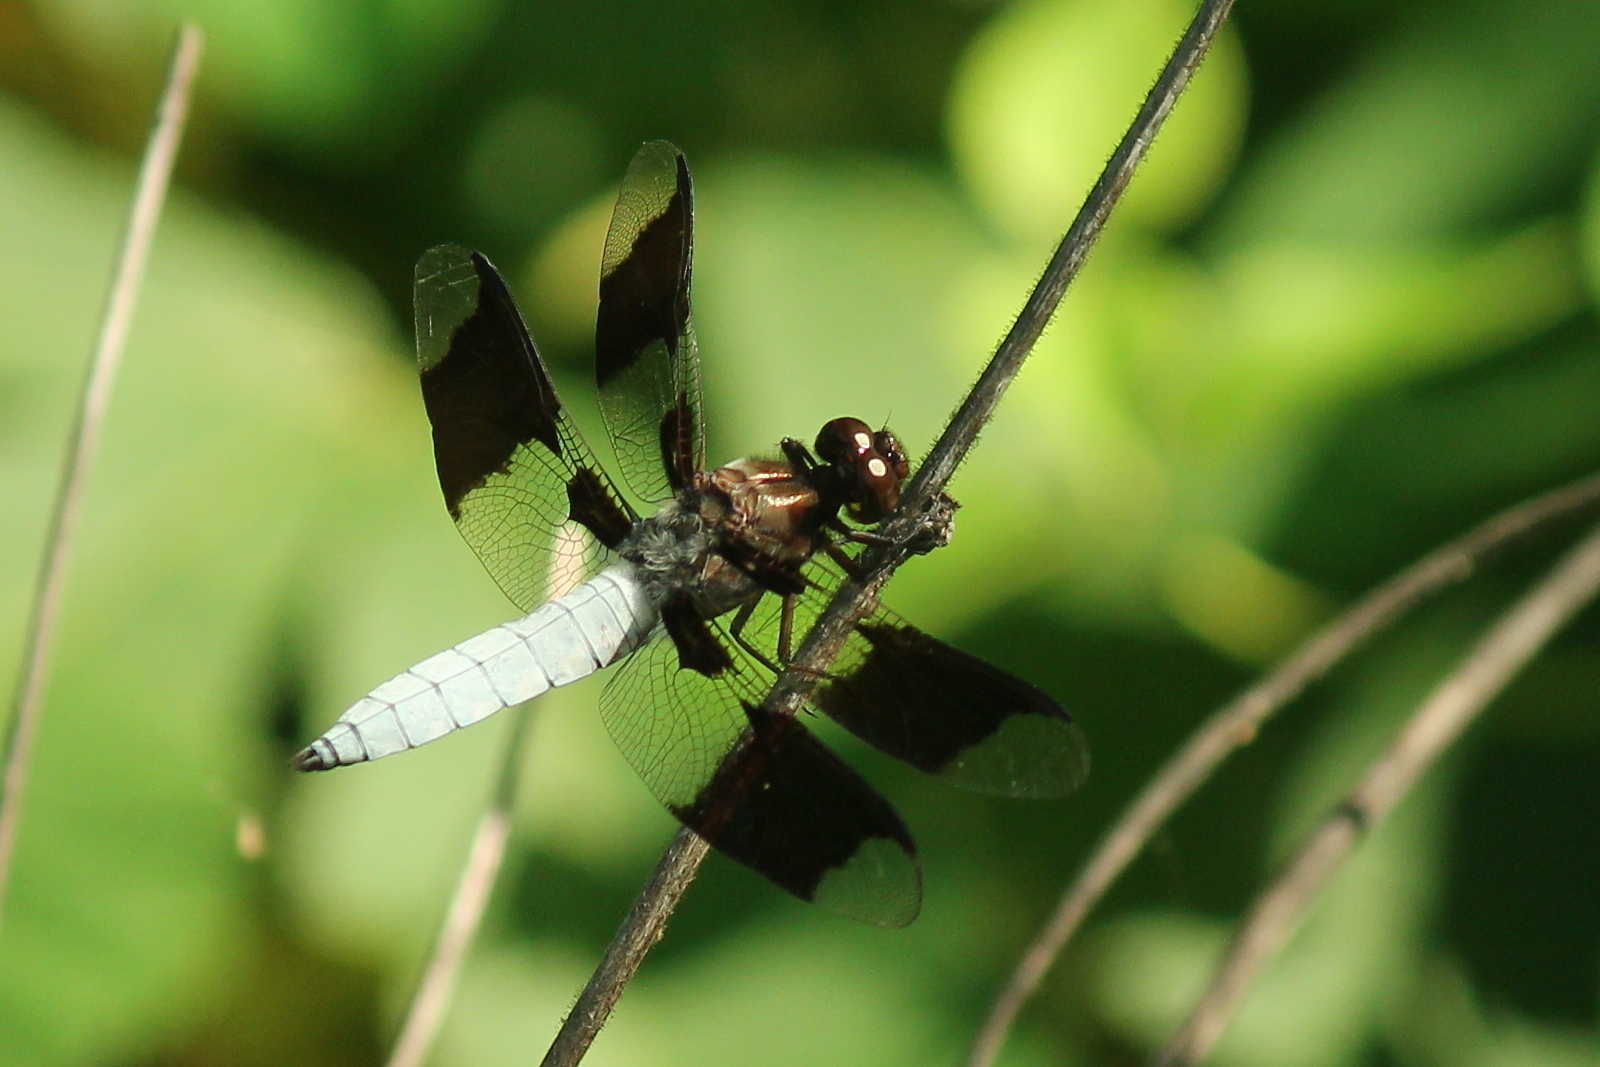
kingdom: Animalia
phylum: Arthropoda
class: Insecta
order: Odonata
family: Libellulidae
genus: Plathemis
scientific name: Plathemis lydia
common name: Common whitetail
